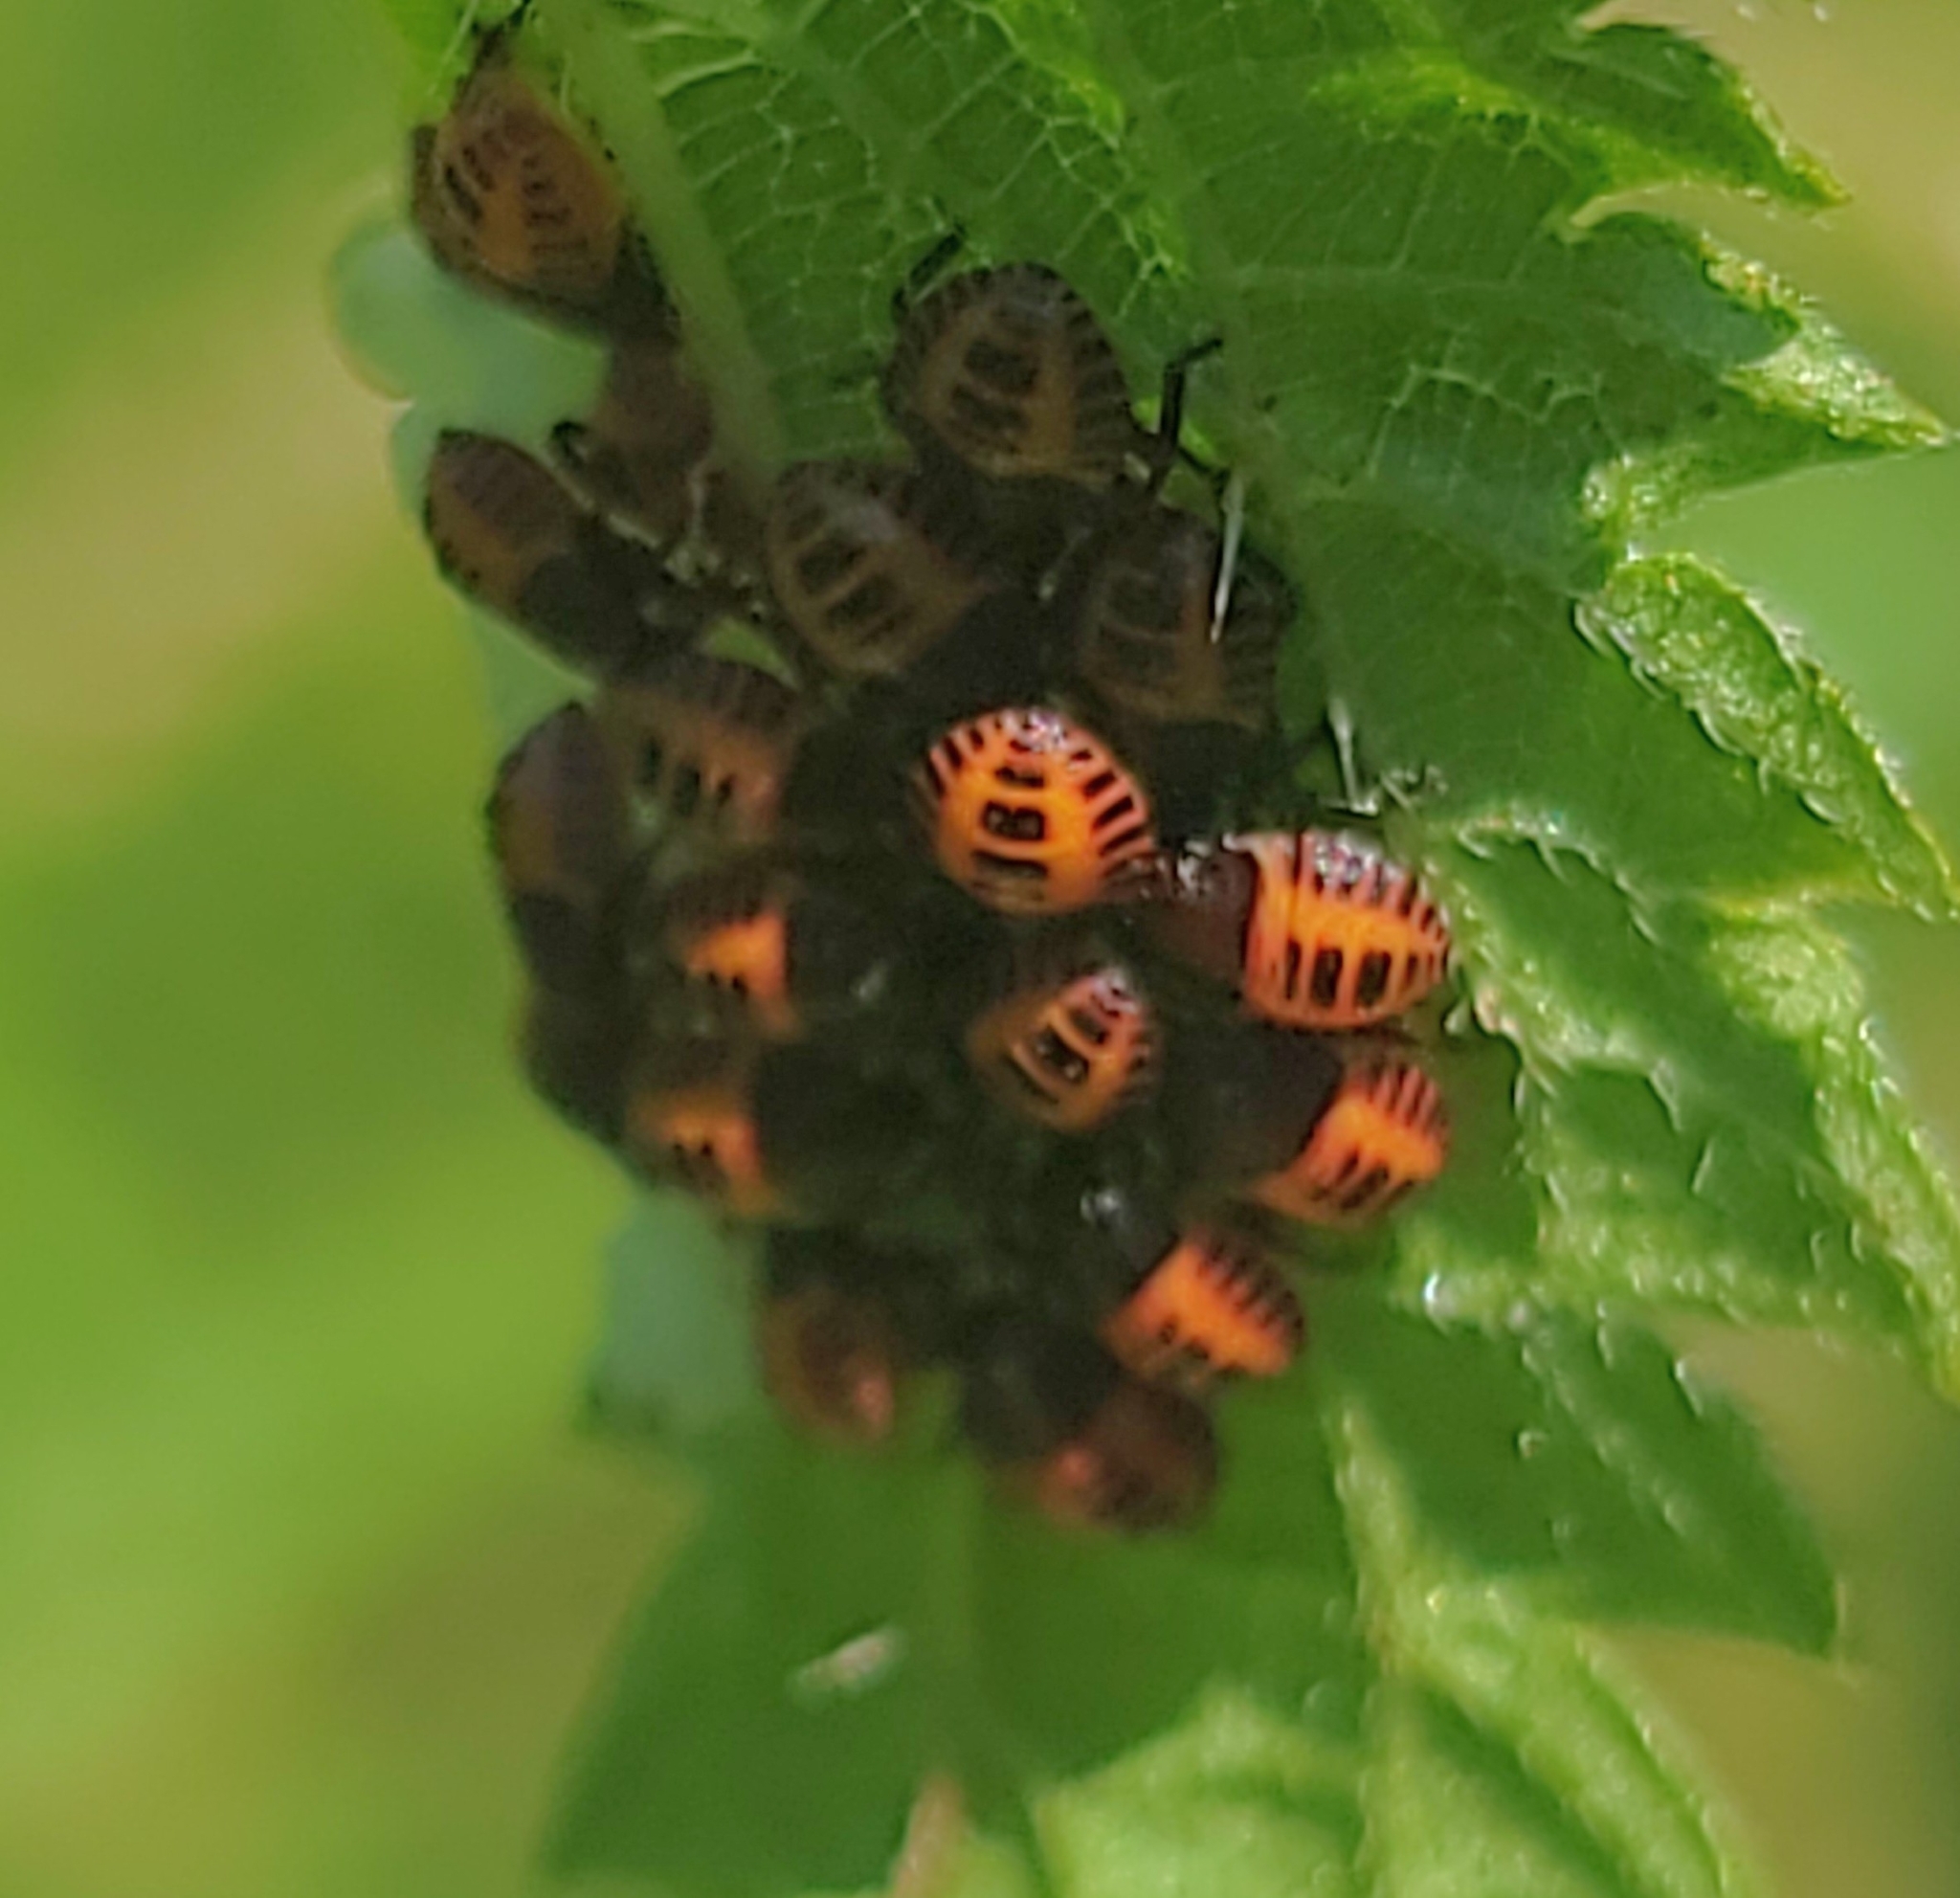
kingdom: Animalia
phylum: Arthropoda
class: Insecta
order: Hemiptera
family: Pentatomidae
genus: Halyomorpha
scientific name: Halyomorpha halys
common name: Brown marmorated stink bug
